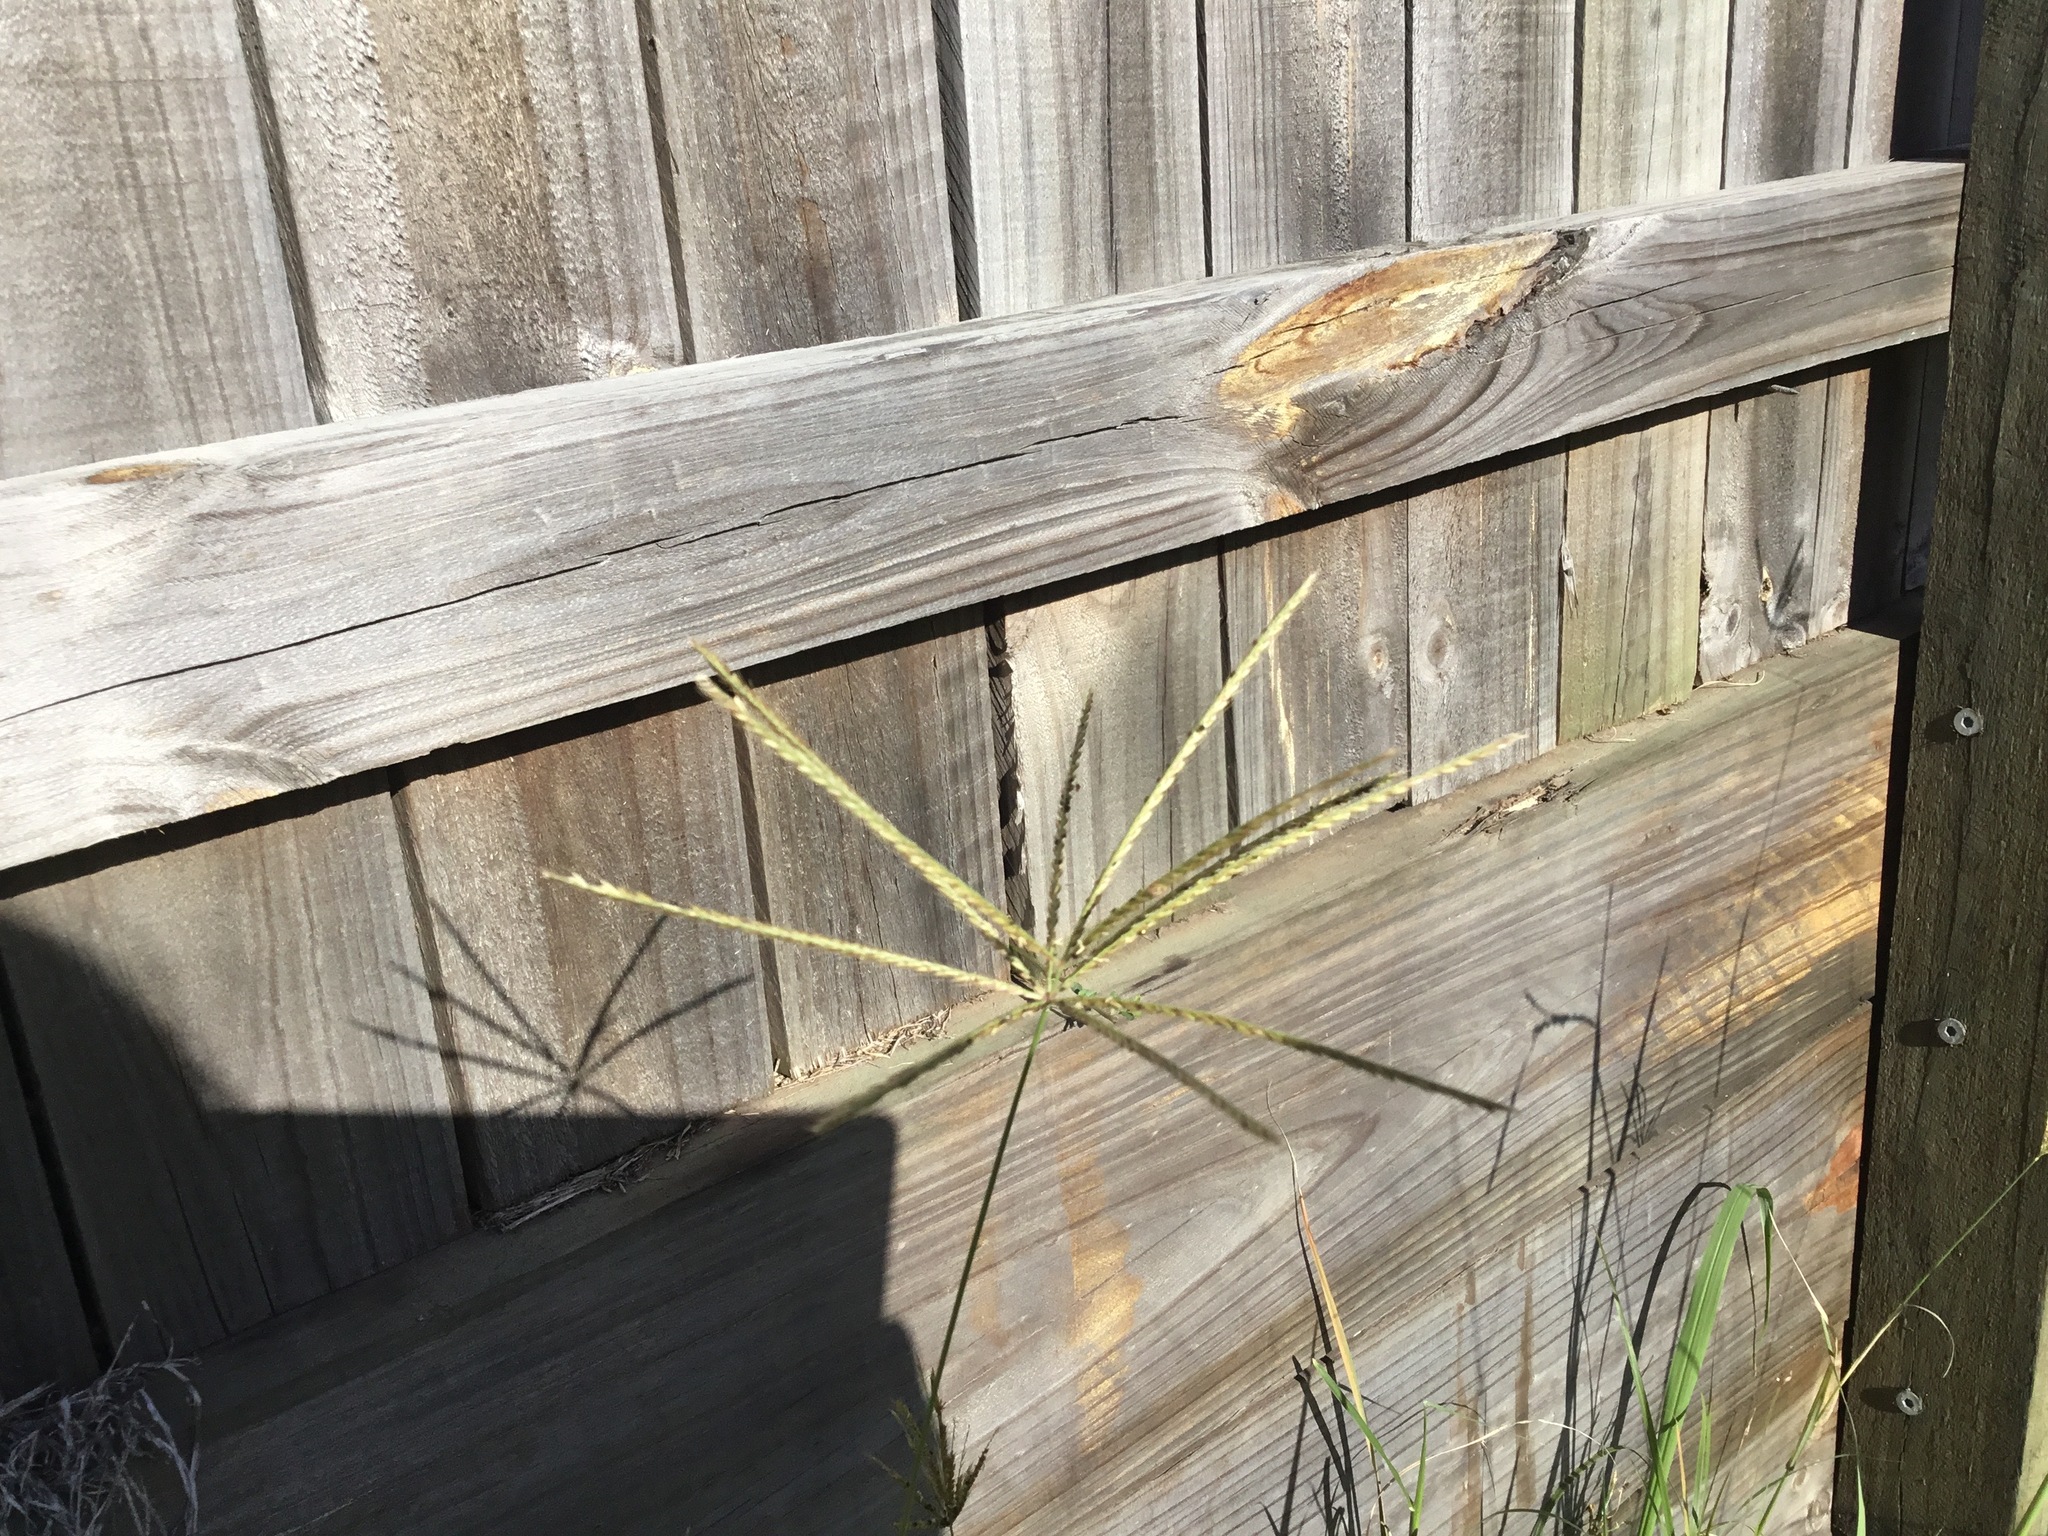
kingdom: Plantae
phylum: Tracheophyta
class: Liliopsida
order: Poales
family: Poaceae
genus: Chloris
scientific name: Chloris gayana
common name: Rhodes grass
